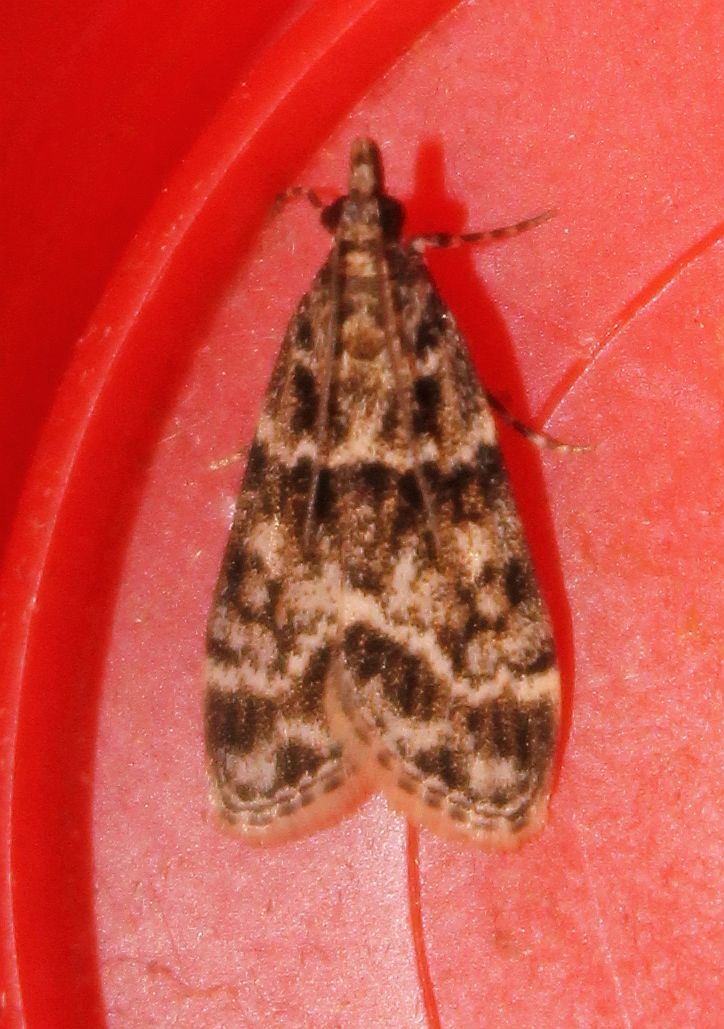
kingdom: Animalia
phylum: Arthropoda
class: Insecta
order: Lepidoptera
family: Crambidae
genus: Eudonia
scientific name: Eudonia mercurella
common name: Small grey
